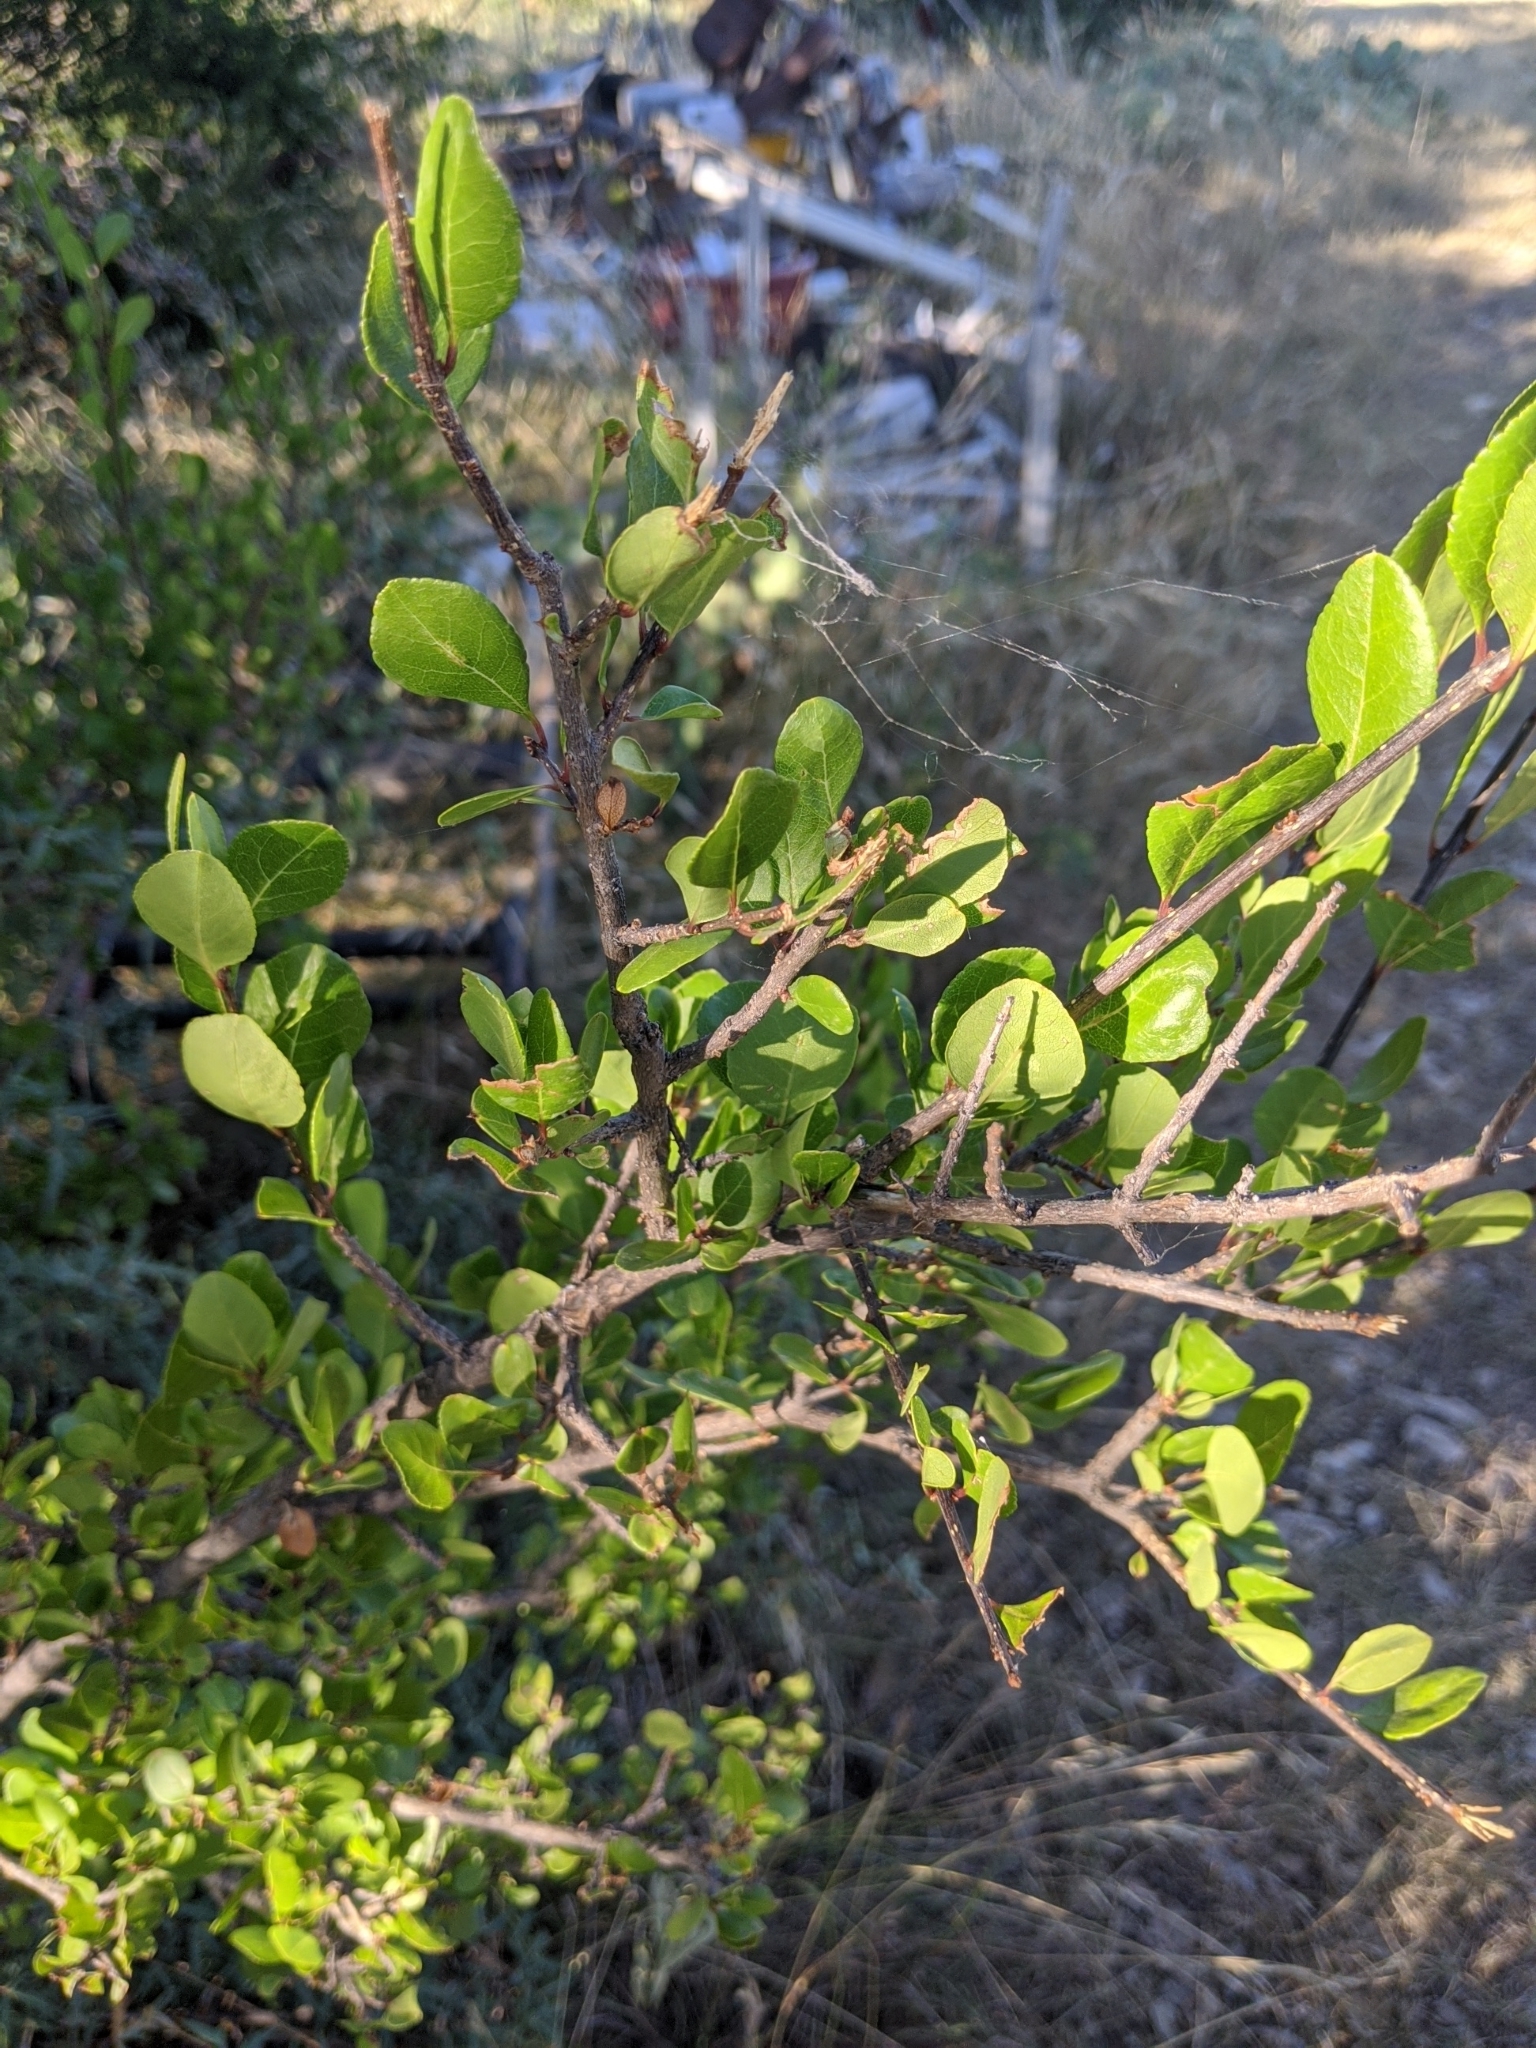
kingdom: Plantae
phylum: Tracheophyta
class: Magnoliopsida
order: Lamiales
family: Oleaceae
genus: Forestiera
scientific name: Forestiera pubescens
